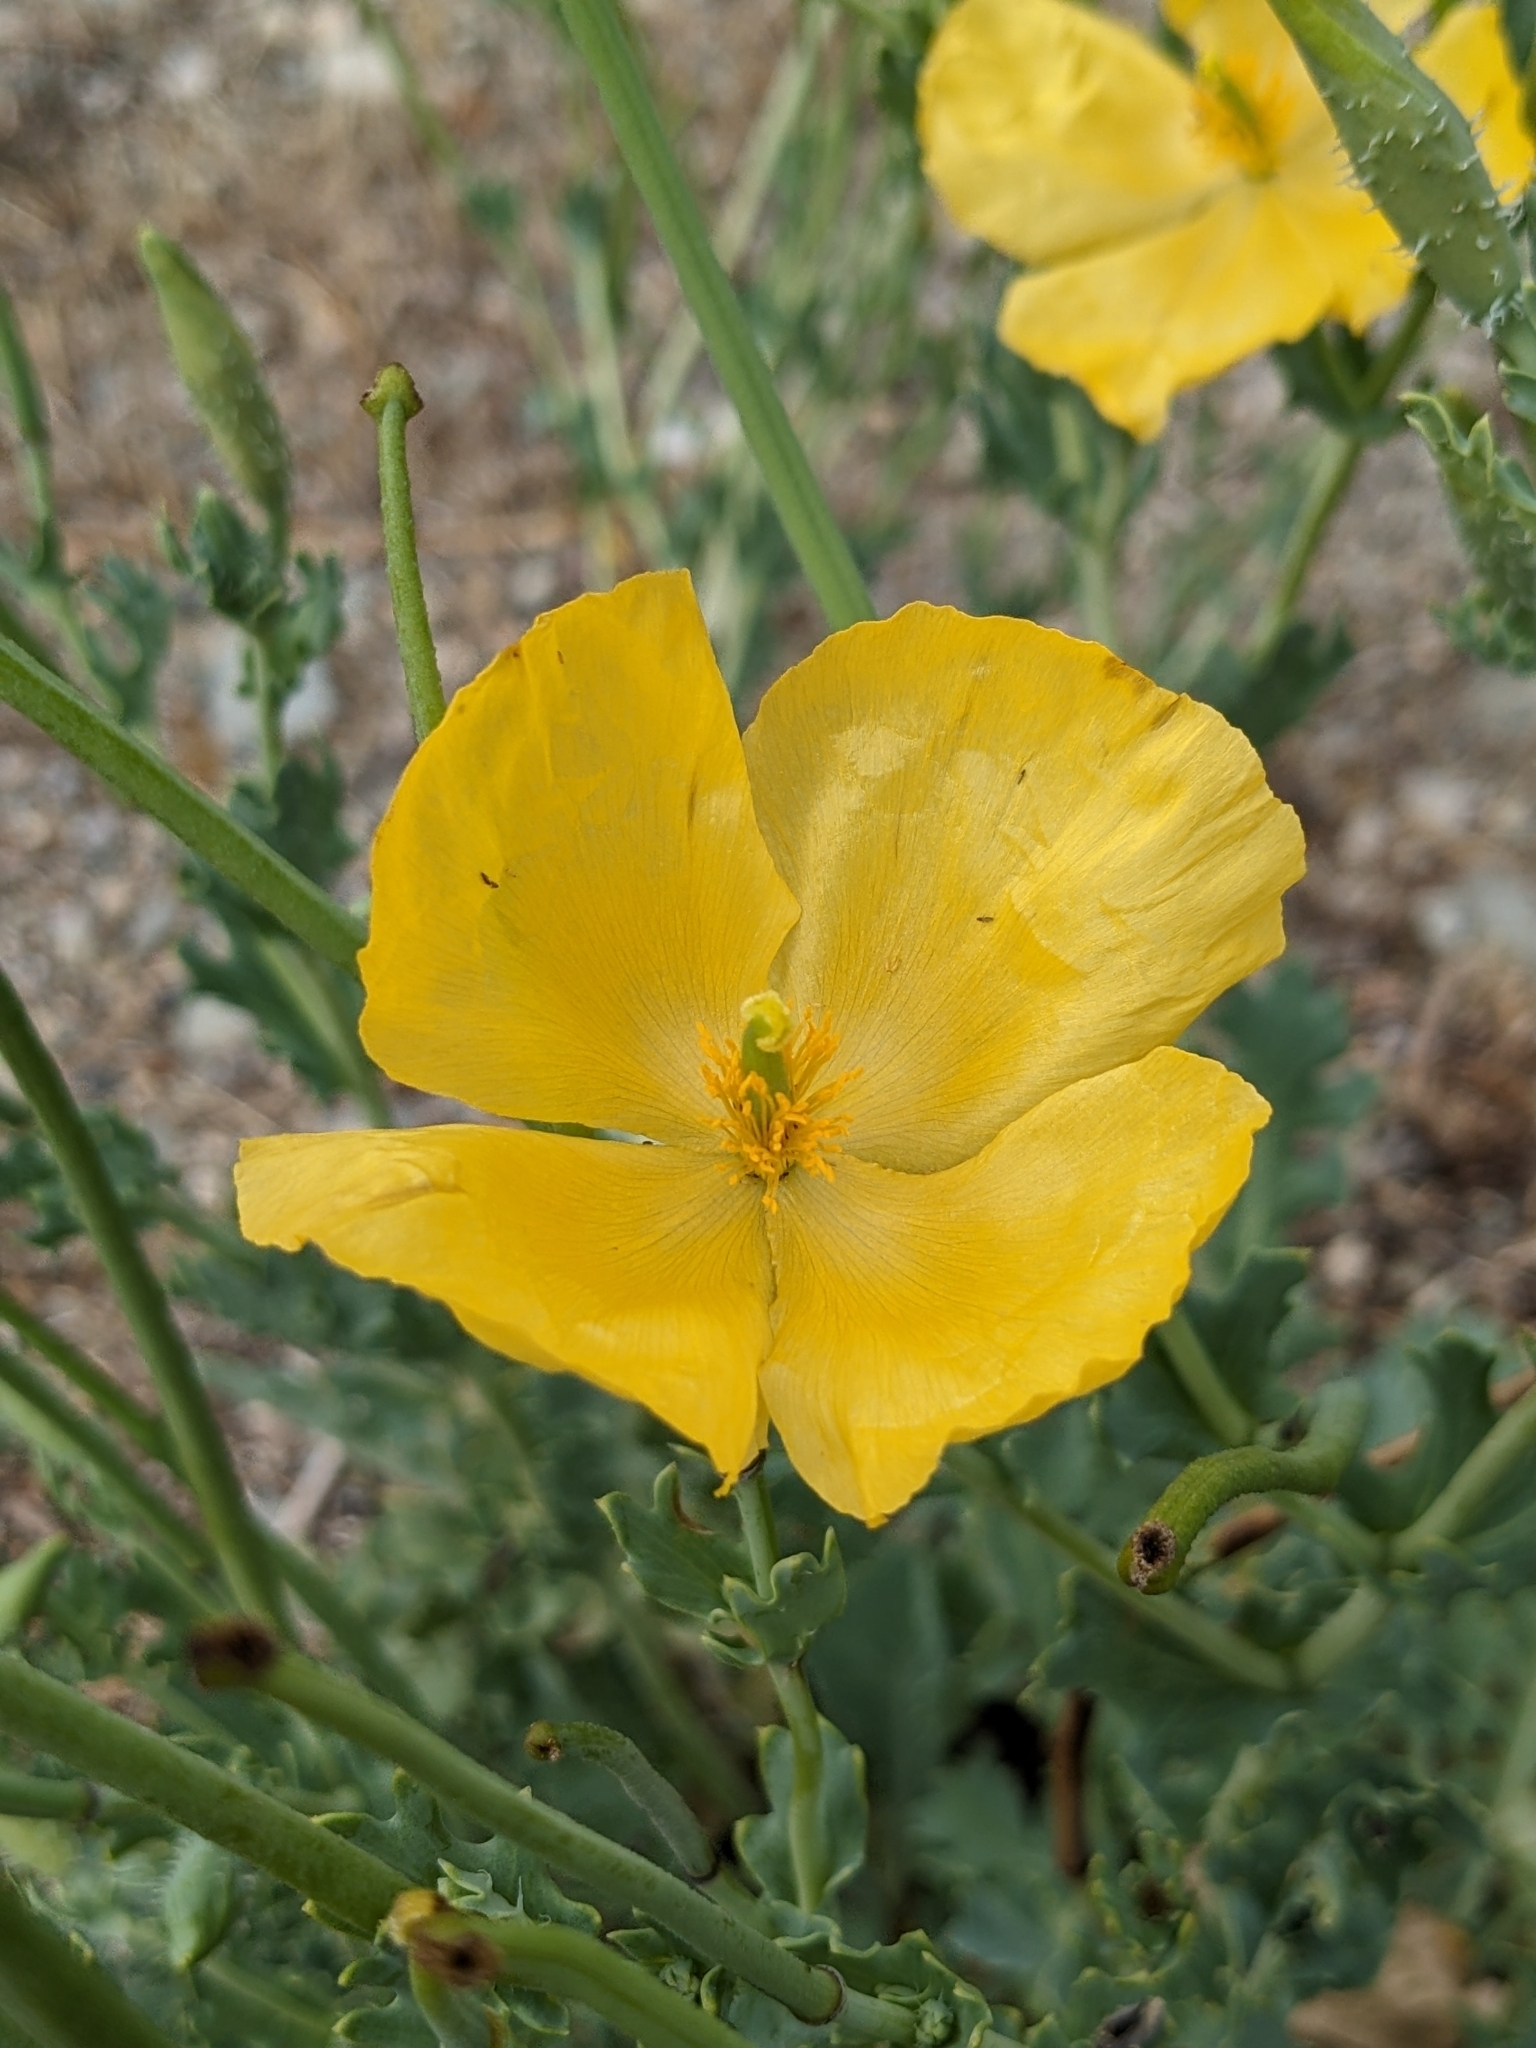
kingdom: Plantae
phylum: Tracheophyta
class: Magnoliopsida
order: Ranunculales
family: Papaveraceae
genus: Glaucium
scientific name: Glaucium flavum
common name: Yellow horned-poppy
